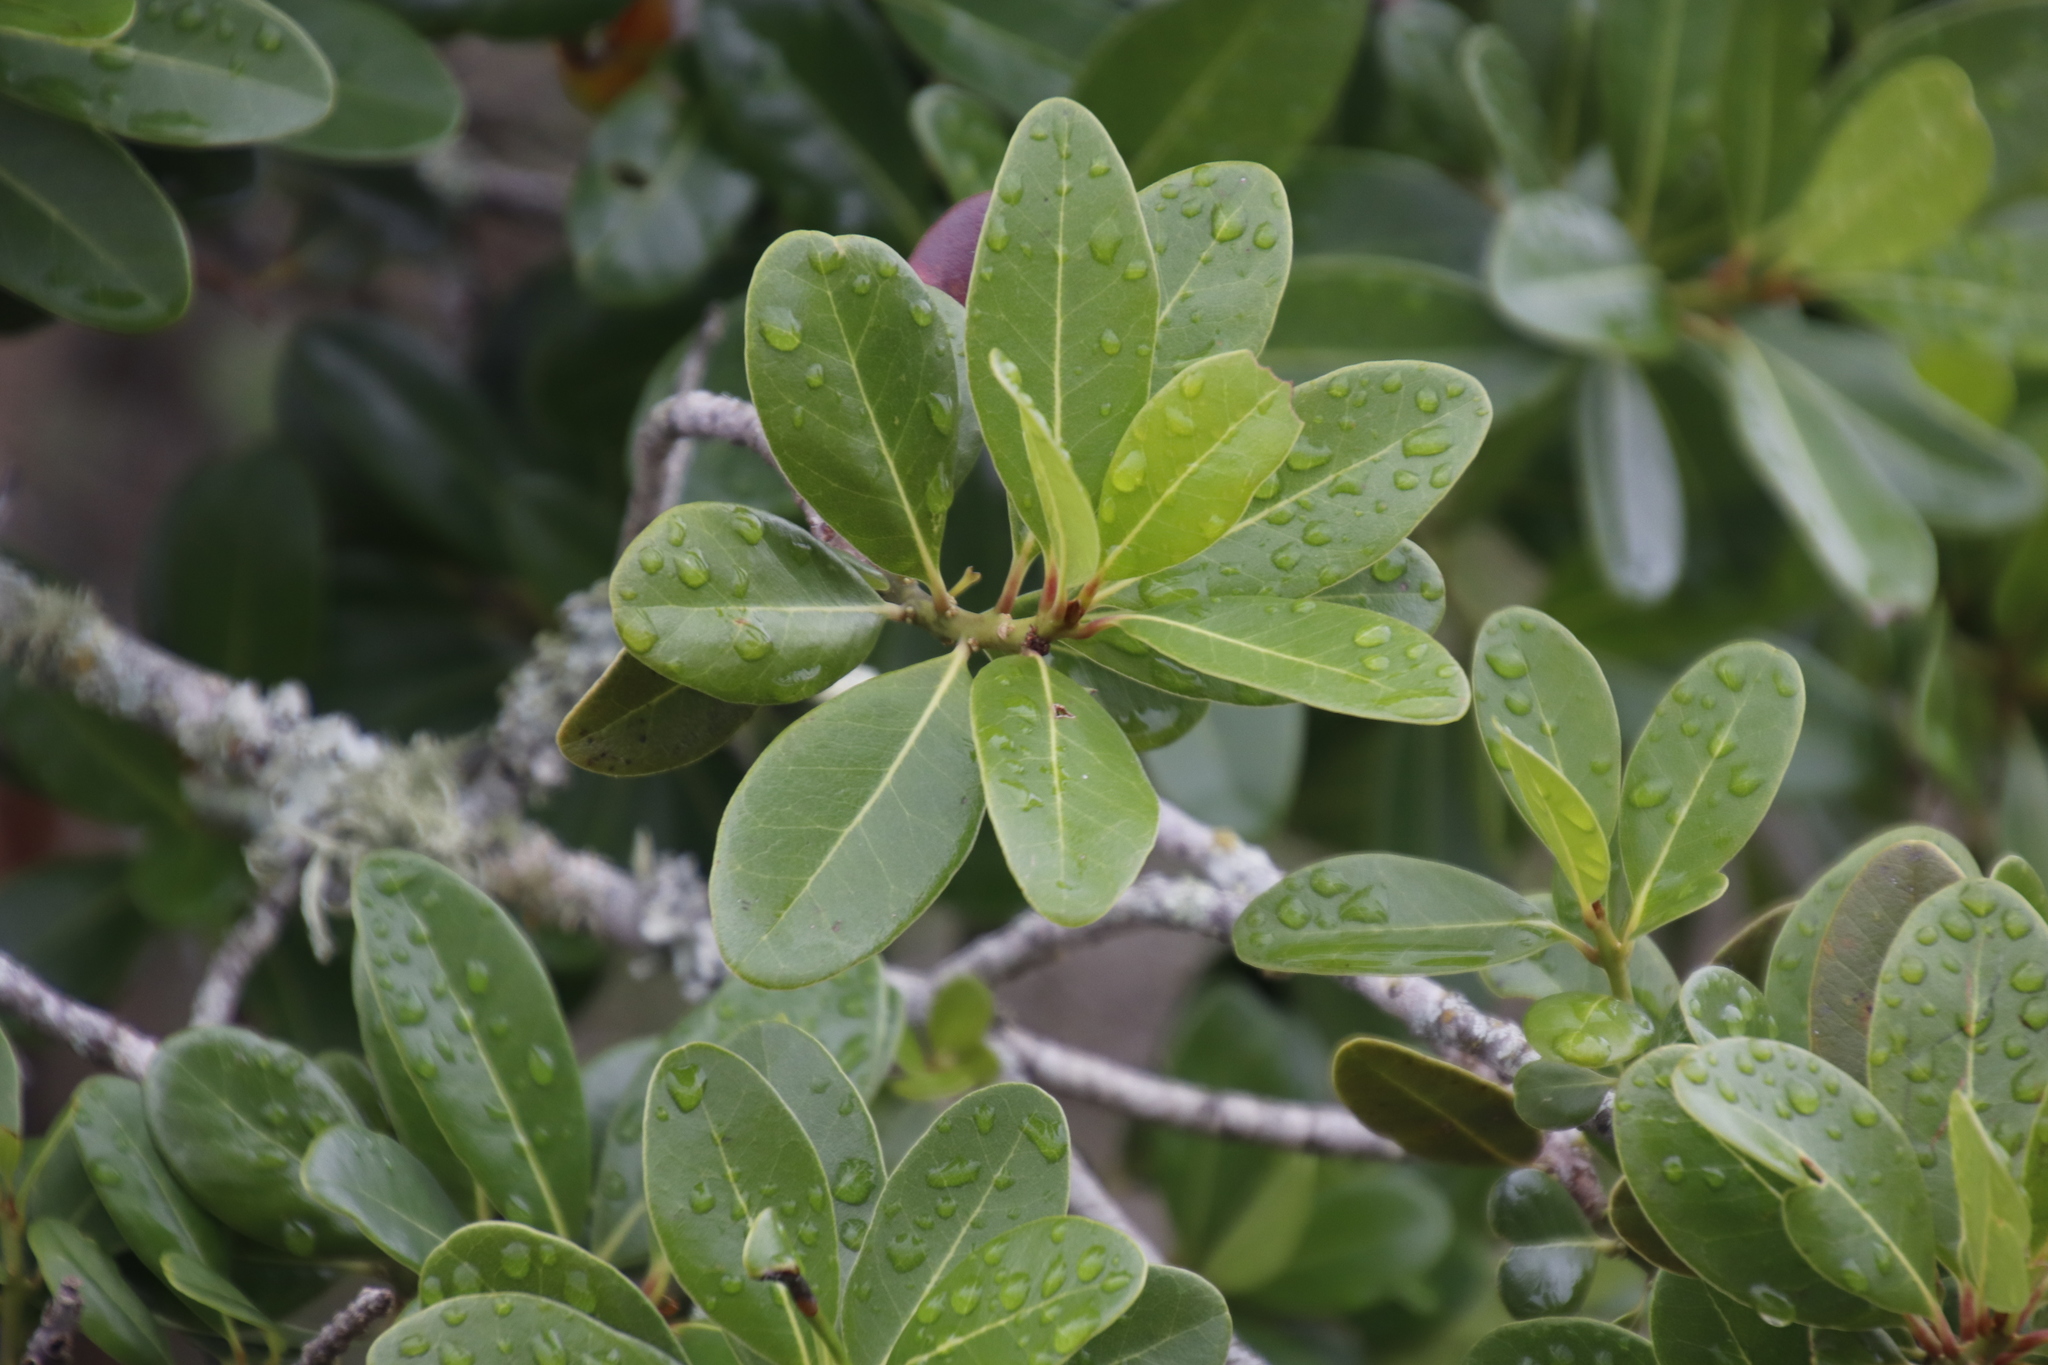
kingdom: Plantae
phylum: Tracheophyta
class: Magnoliopsida
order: Ericales
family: Sapotaceae
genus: Sideroxylon
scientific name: Sideroxylon inerme
